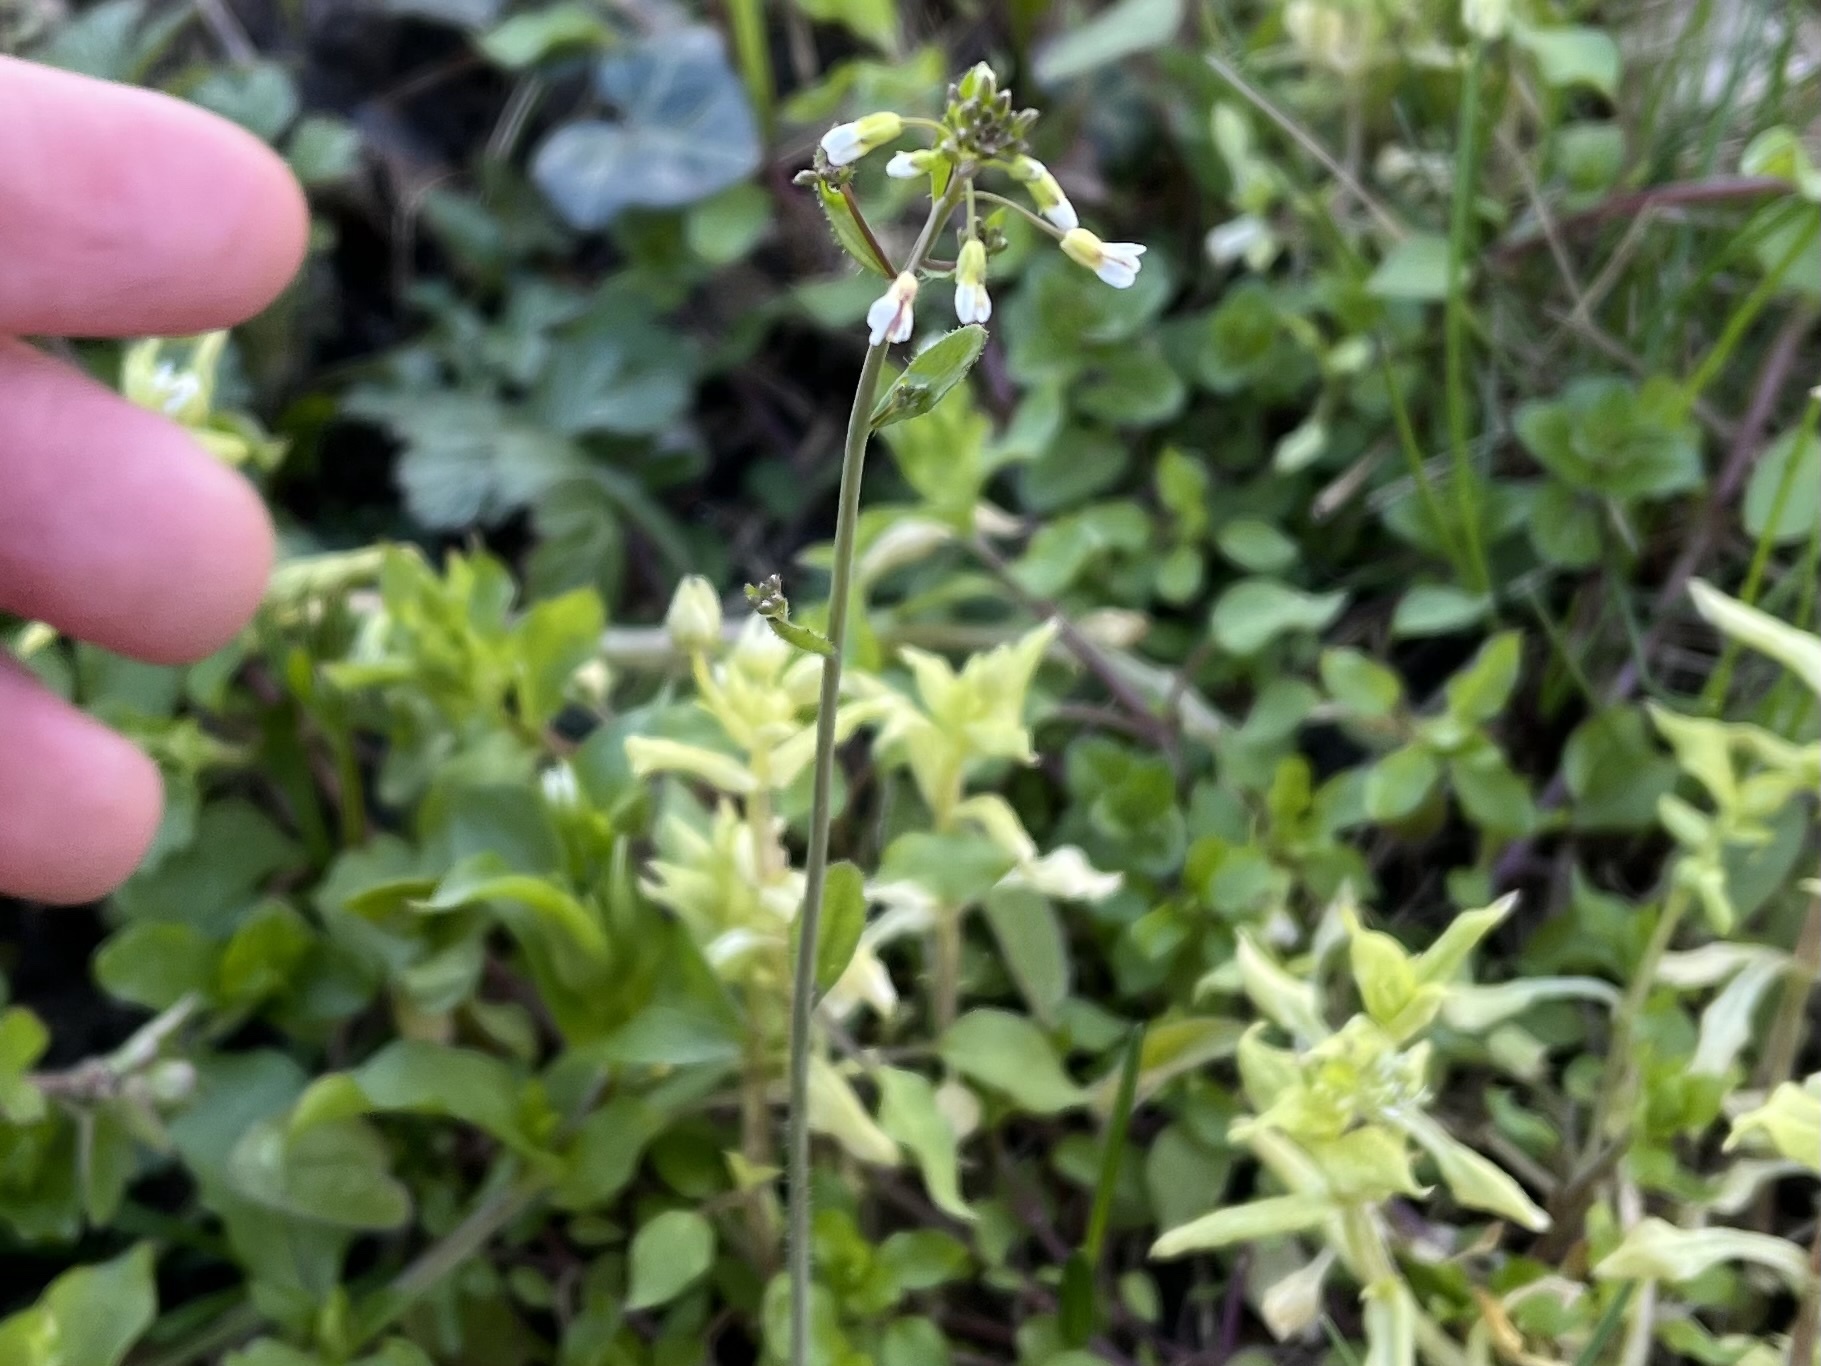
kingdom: Plantae
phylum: Tracheophyta
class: Magnoliopsida
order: Brassicales
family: Brassicaceae
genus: Arabidopsis
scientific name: Arabidopsis thaliana
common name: Thale cress
